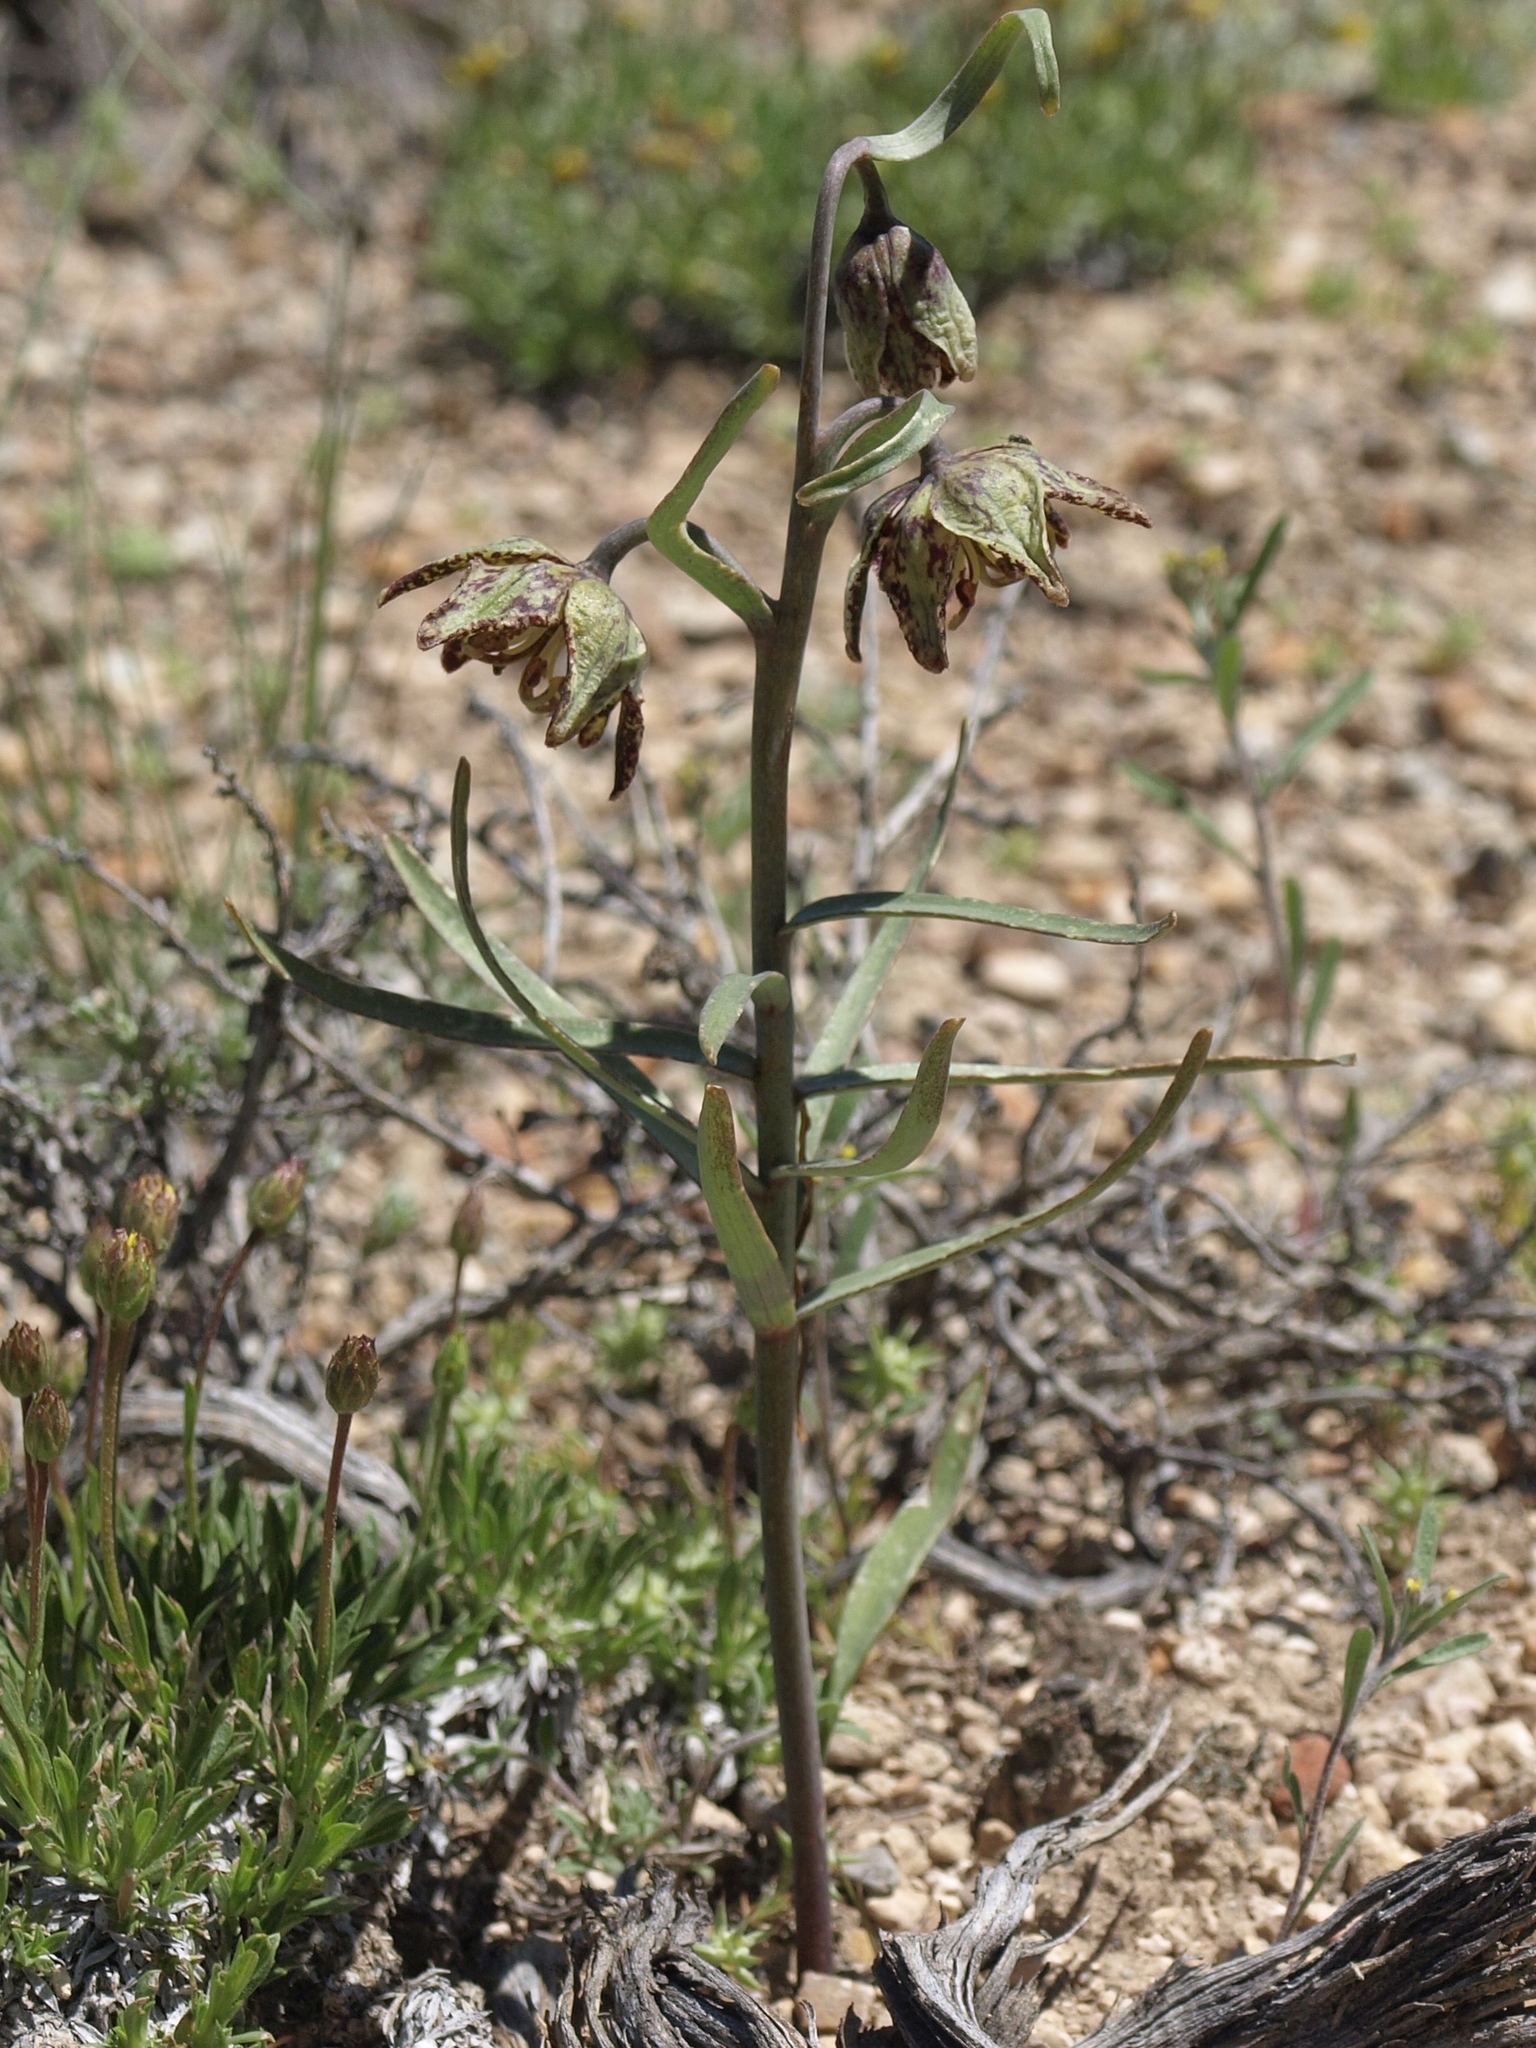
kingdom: Plantae
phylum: Tracheophyta
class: Liliopsida
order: Liliales
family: Liliaceae
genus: Fritillaria
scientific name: Fritillaria atropurpurea
